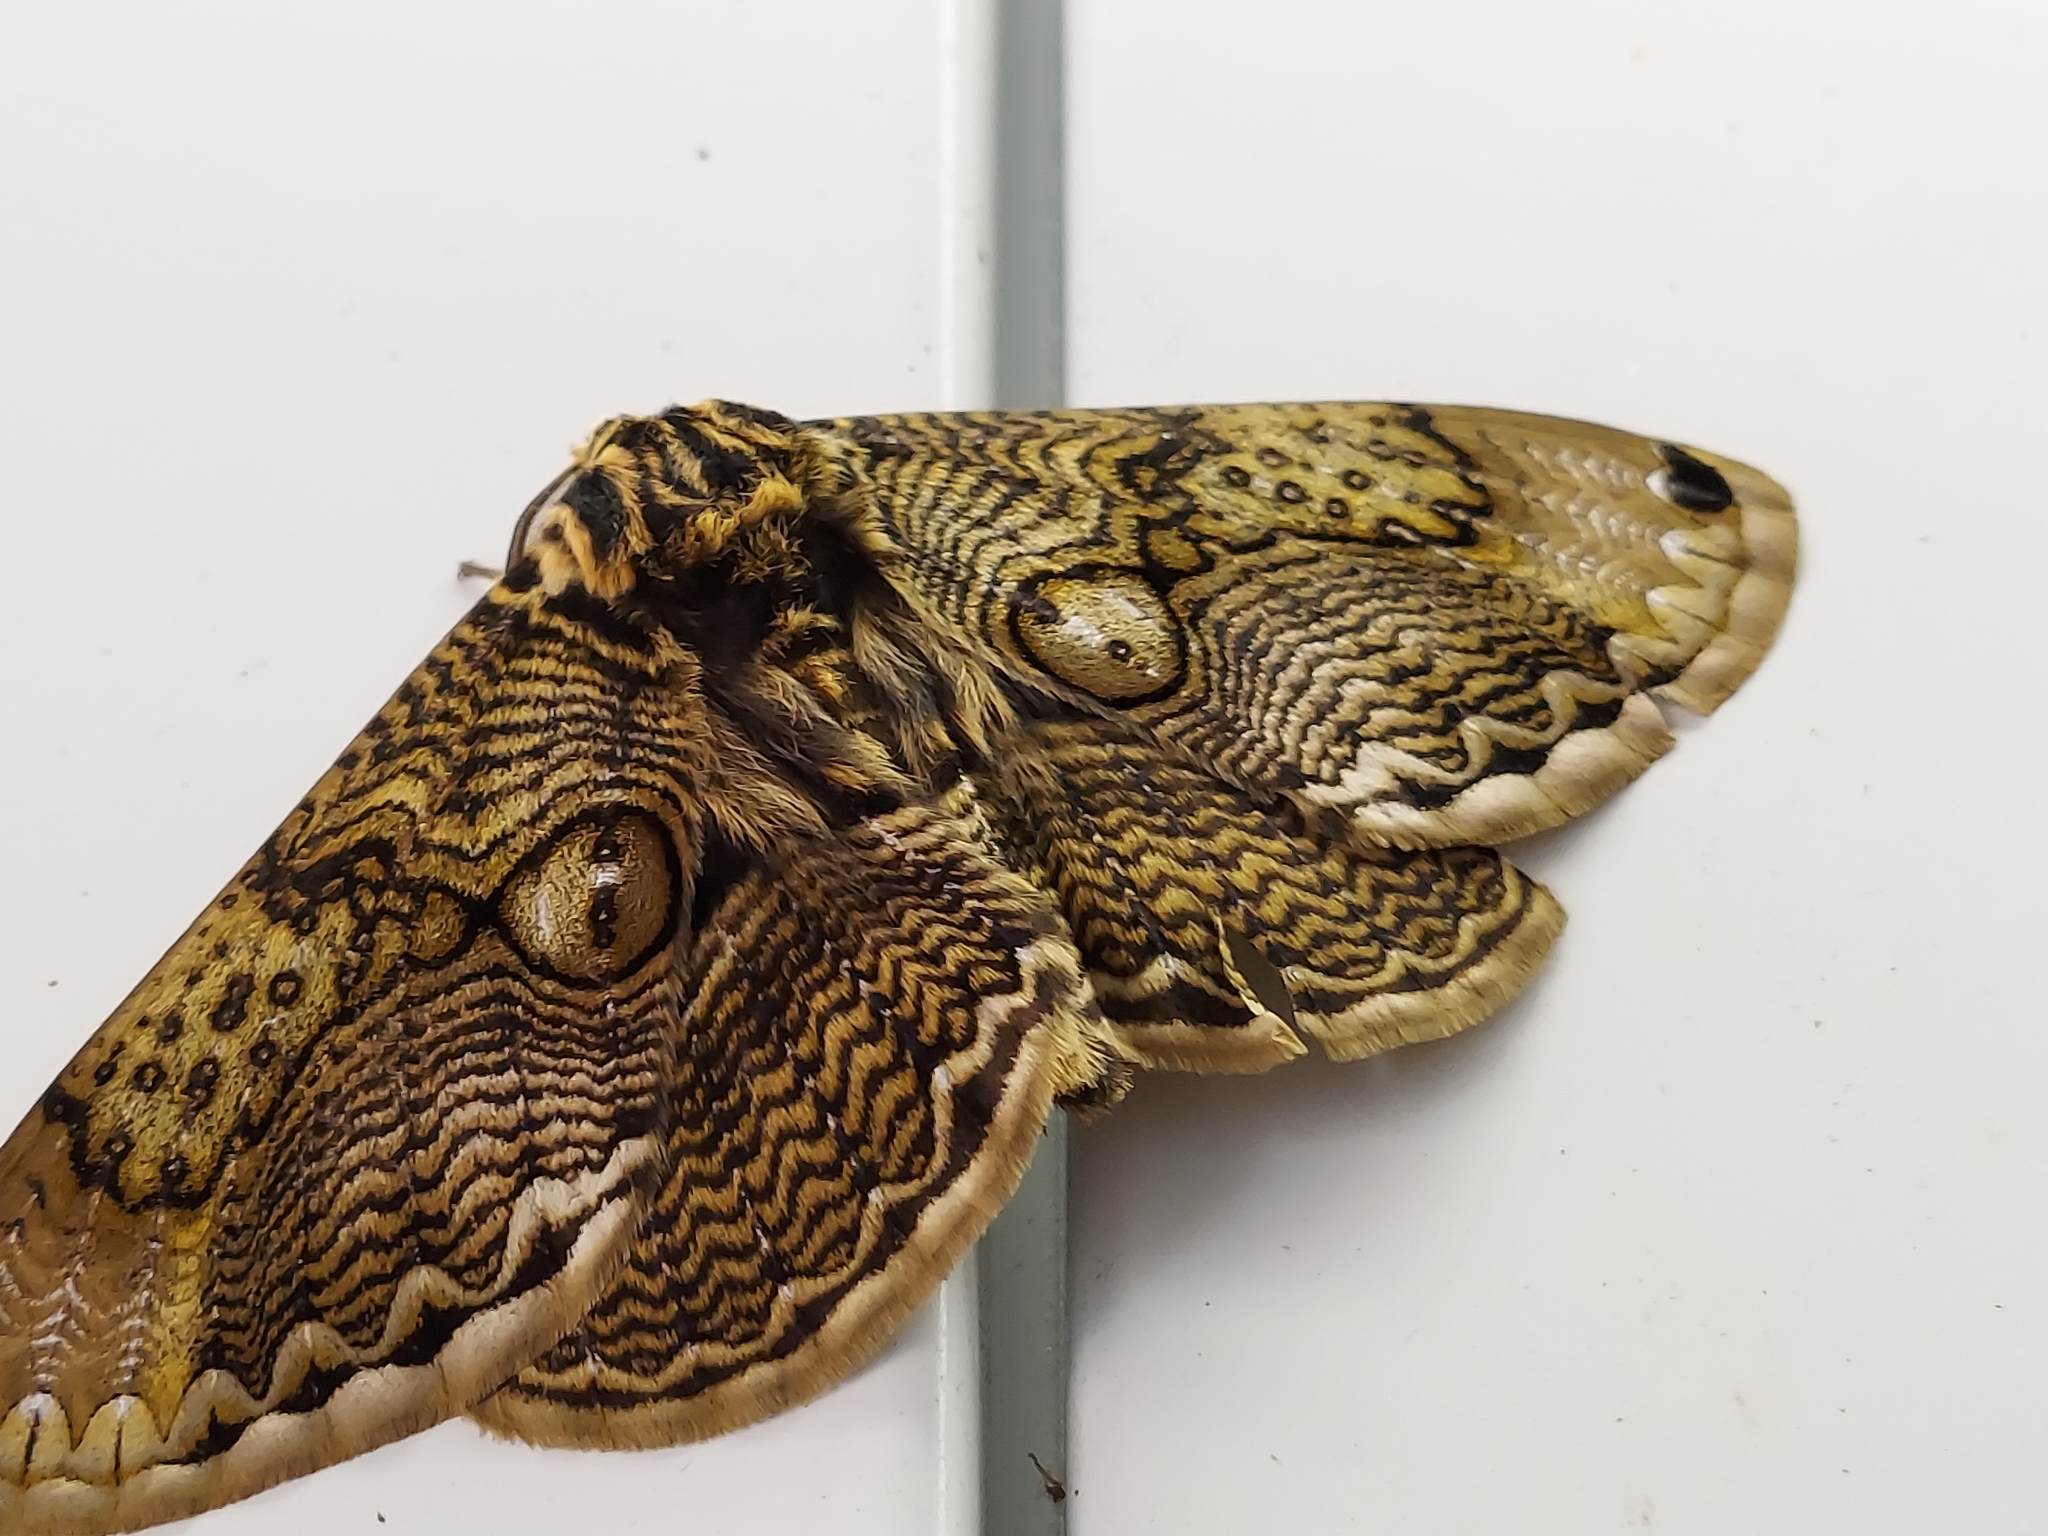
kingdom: Animalia
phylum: Arthropoda
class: Insecta
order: Lepidoptera
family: Brahmaeidae
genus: Brahmaea
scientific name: Brahmaea japonica
